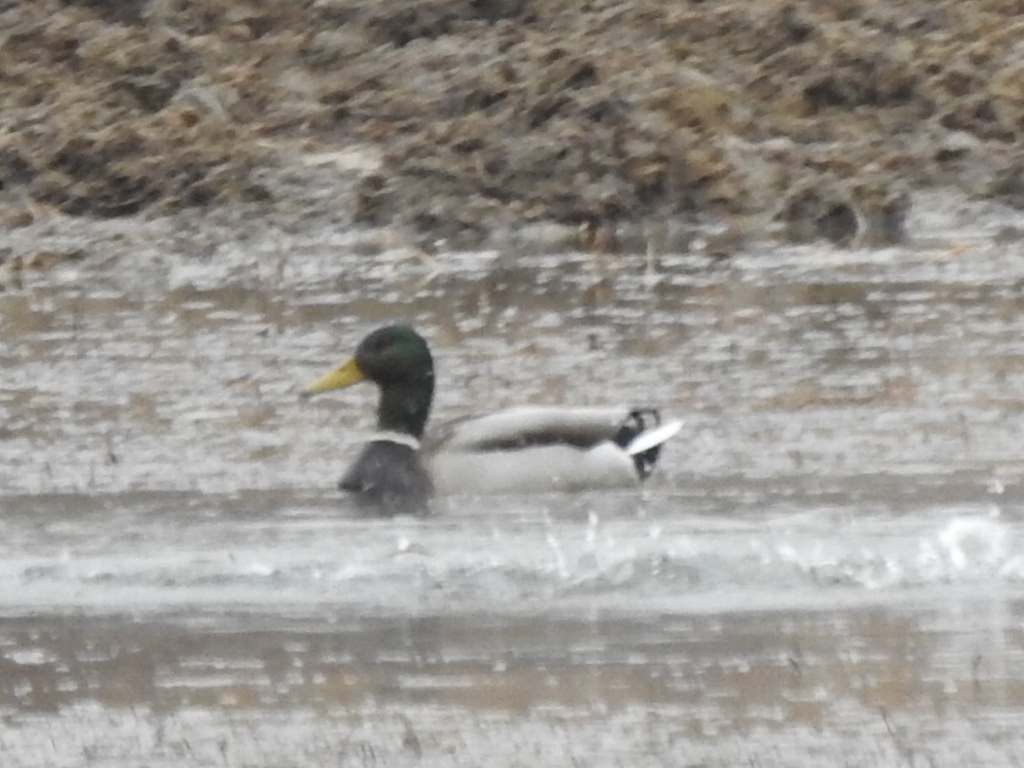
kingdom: Animalia
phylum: Chordata
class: Aves
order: Anseriformes
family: Anatidae
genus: Anas
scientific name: Anas platyrhynchos
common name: Mallard
